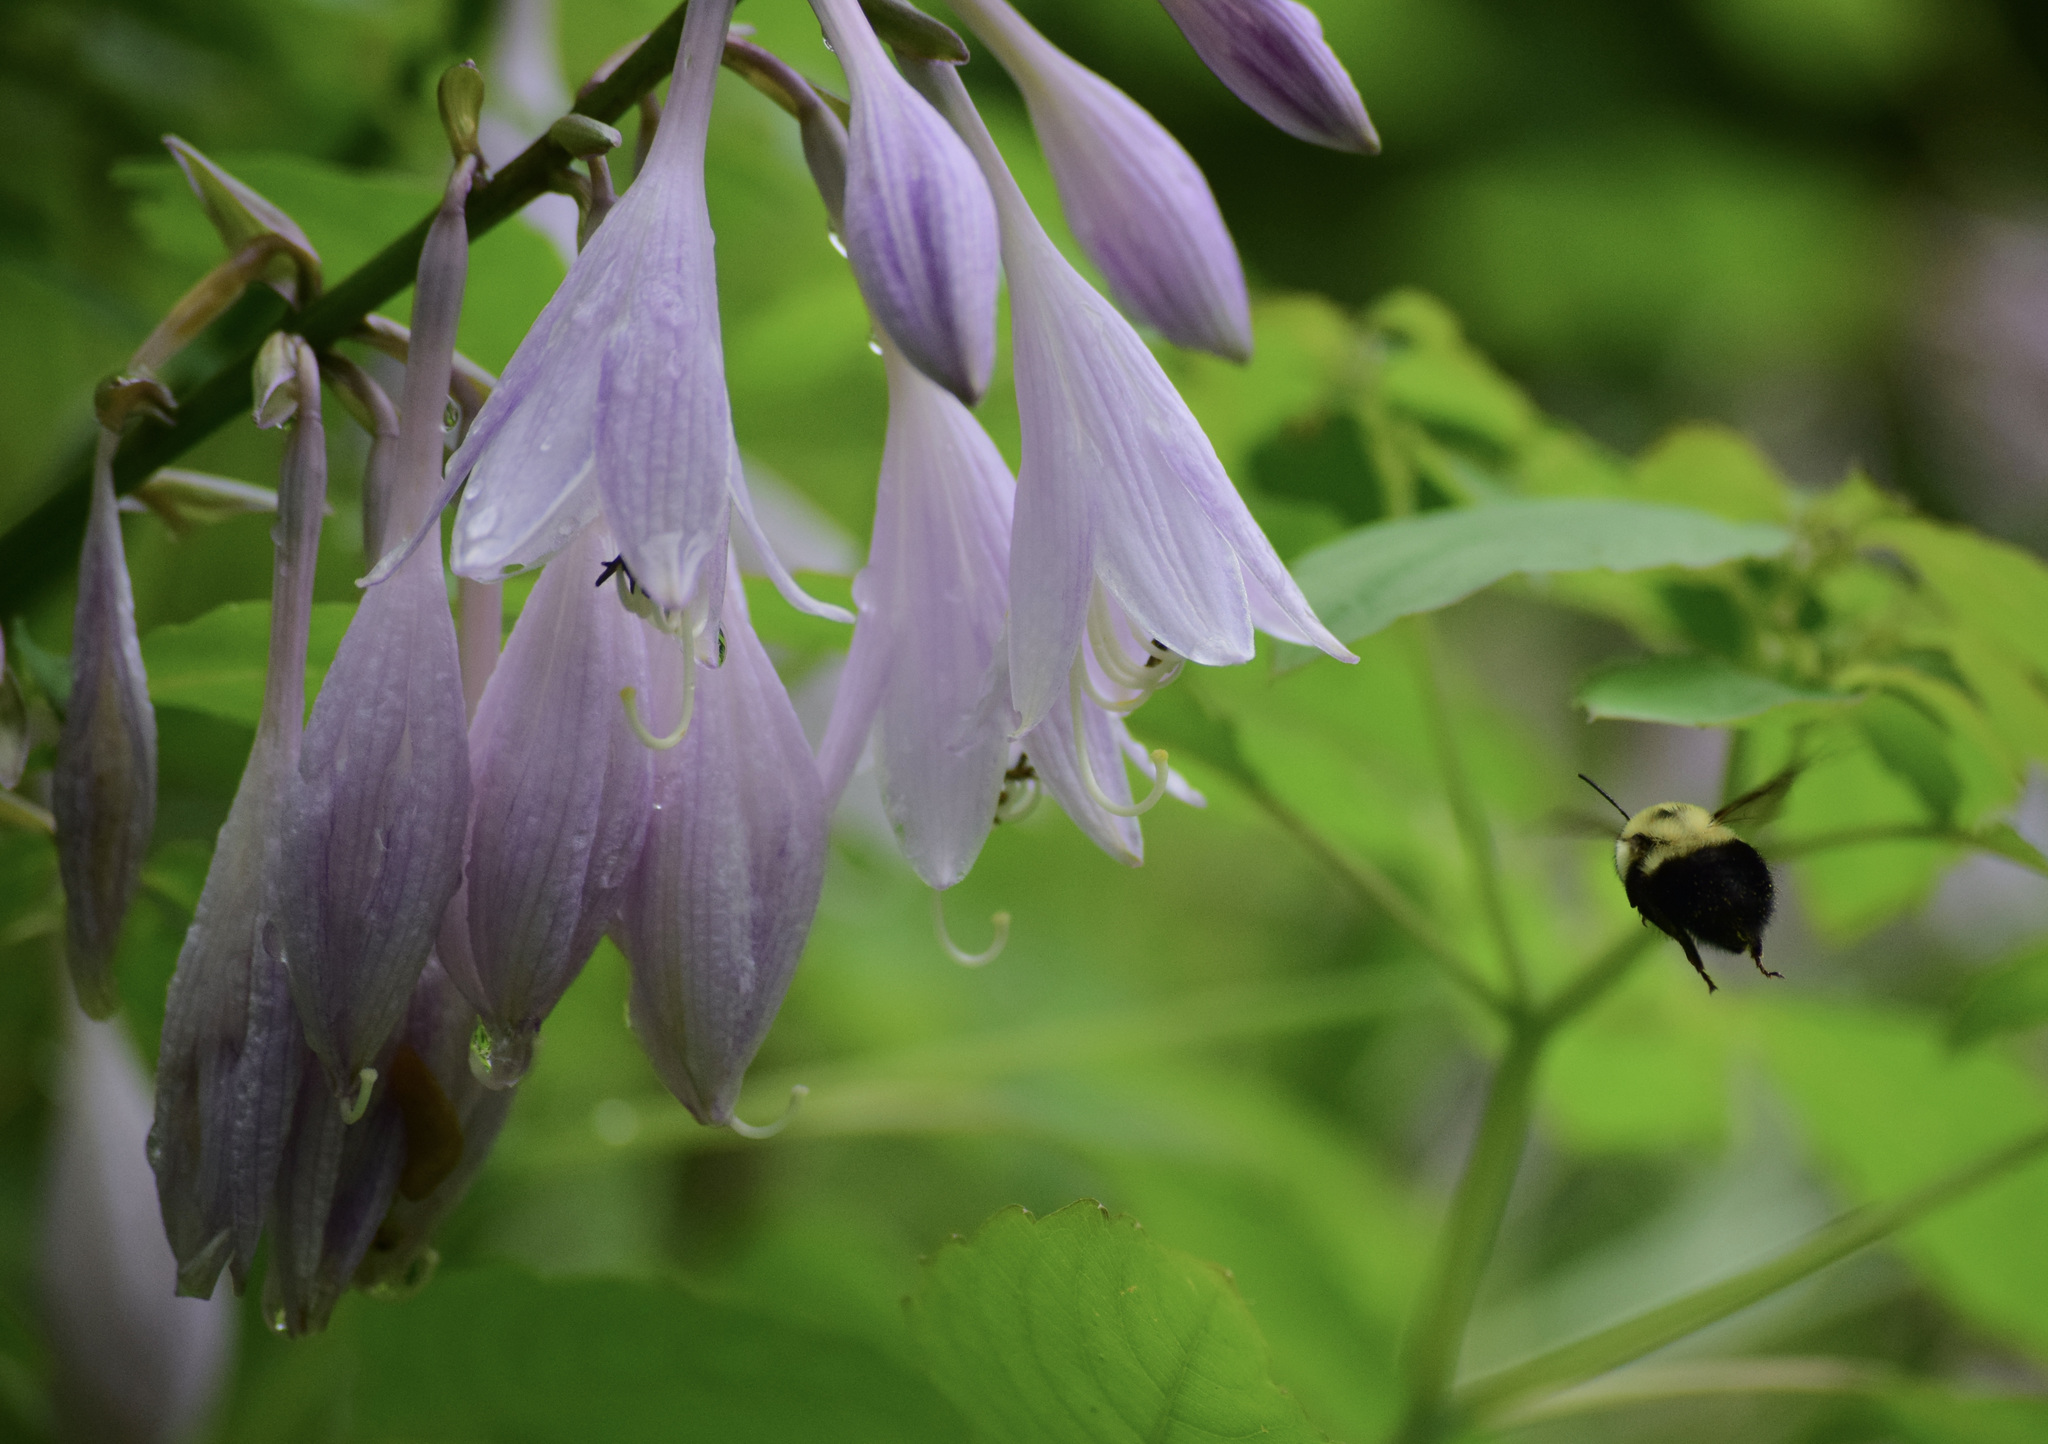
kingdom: Animalia
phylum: Arthropoda
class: Insecta
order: Hymenoptera
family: Apidae
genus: Bombus
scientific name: Bombus bimaculatus
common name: Two-spotted bumble bee
